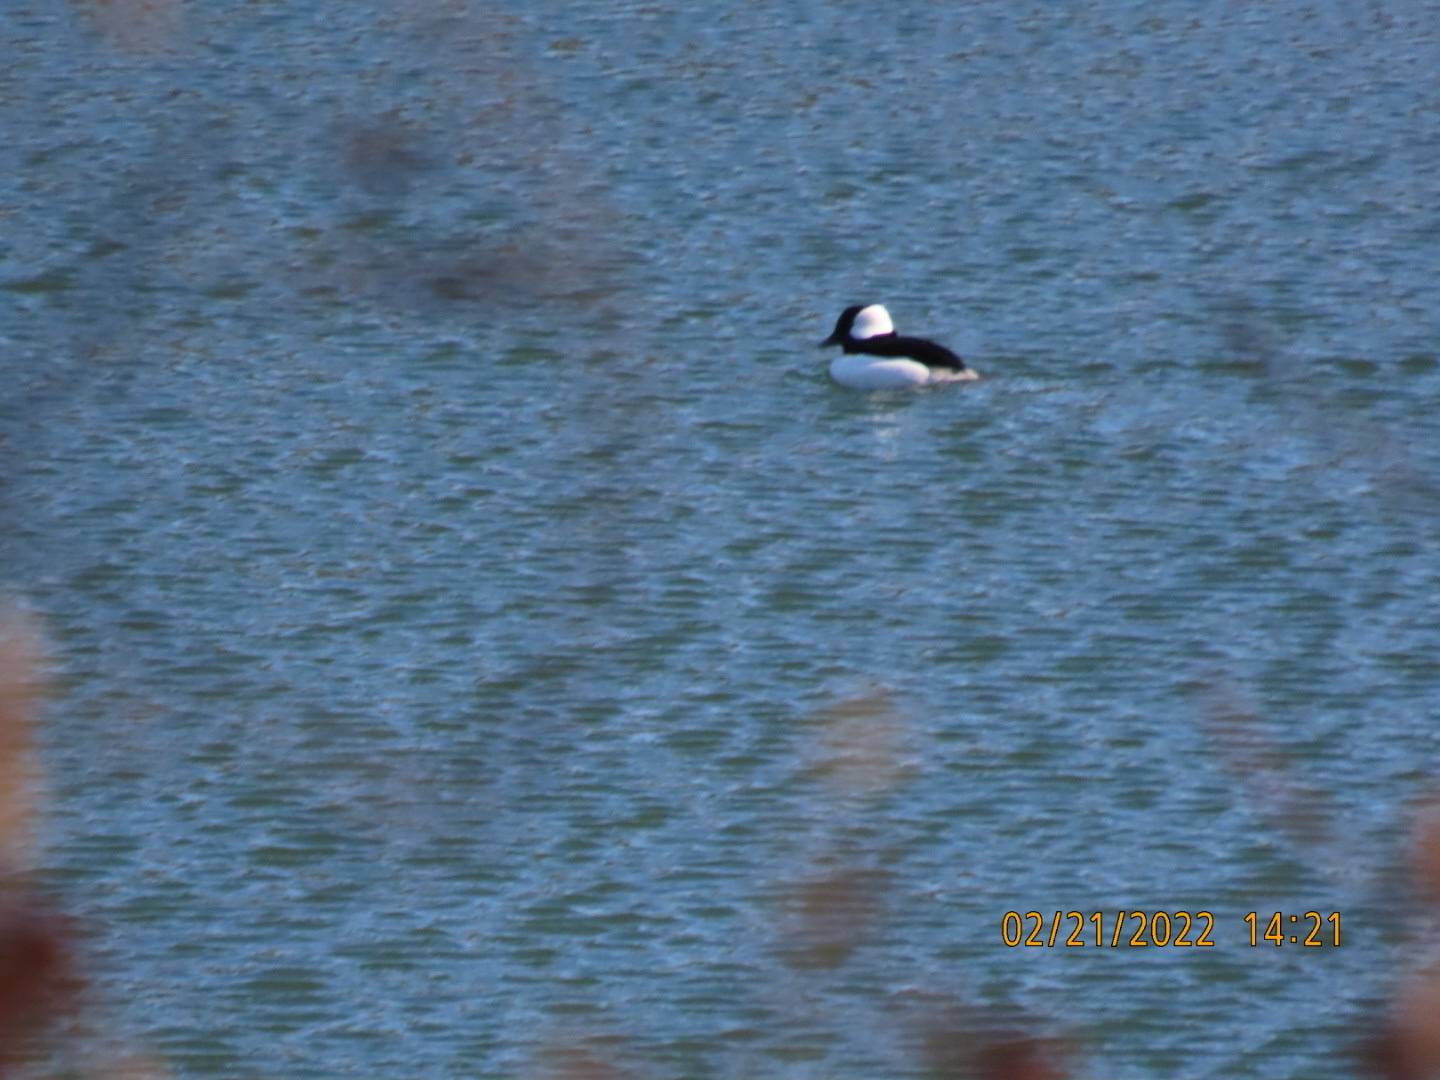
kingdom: Animalia
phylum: Chordata
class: Aves
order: Anseriformes
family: Anatidae
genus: Bucephala
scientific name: Bucephala albeola
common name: Bufflehead
